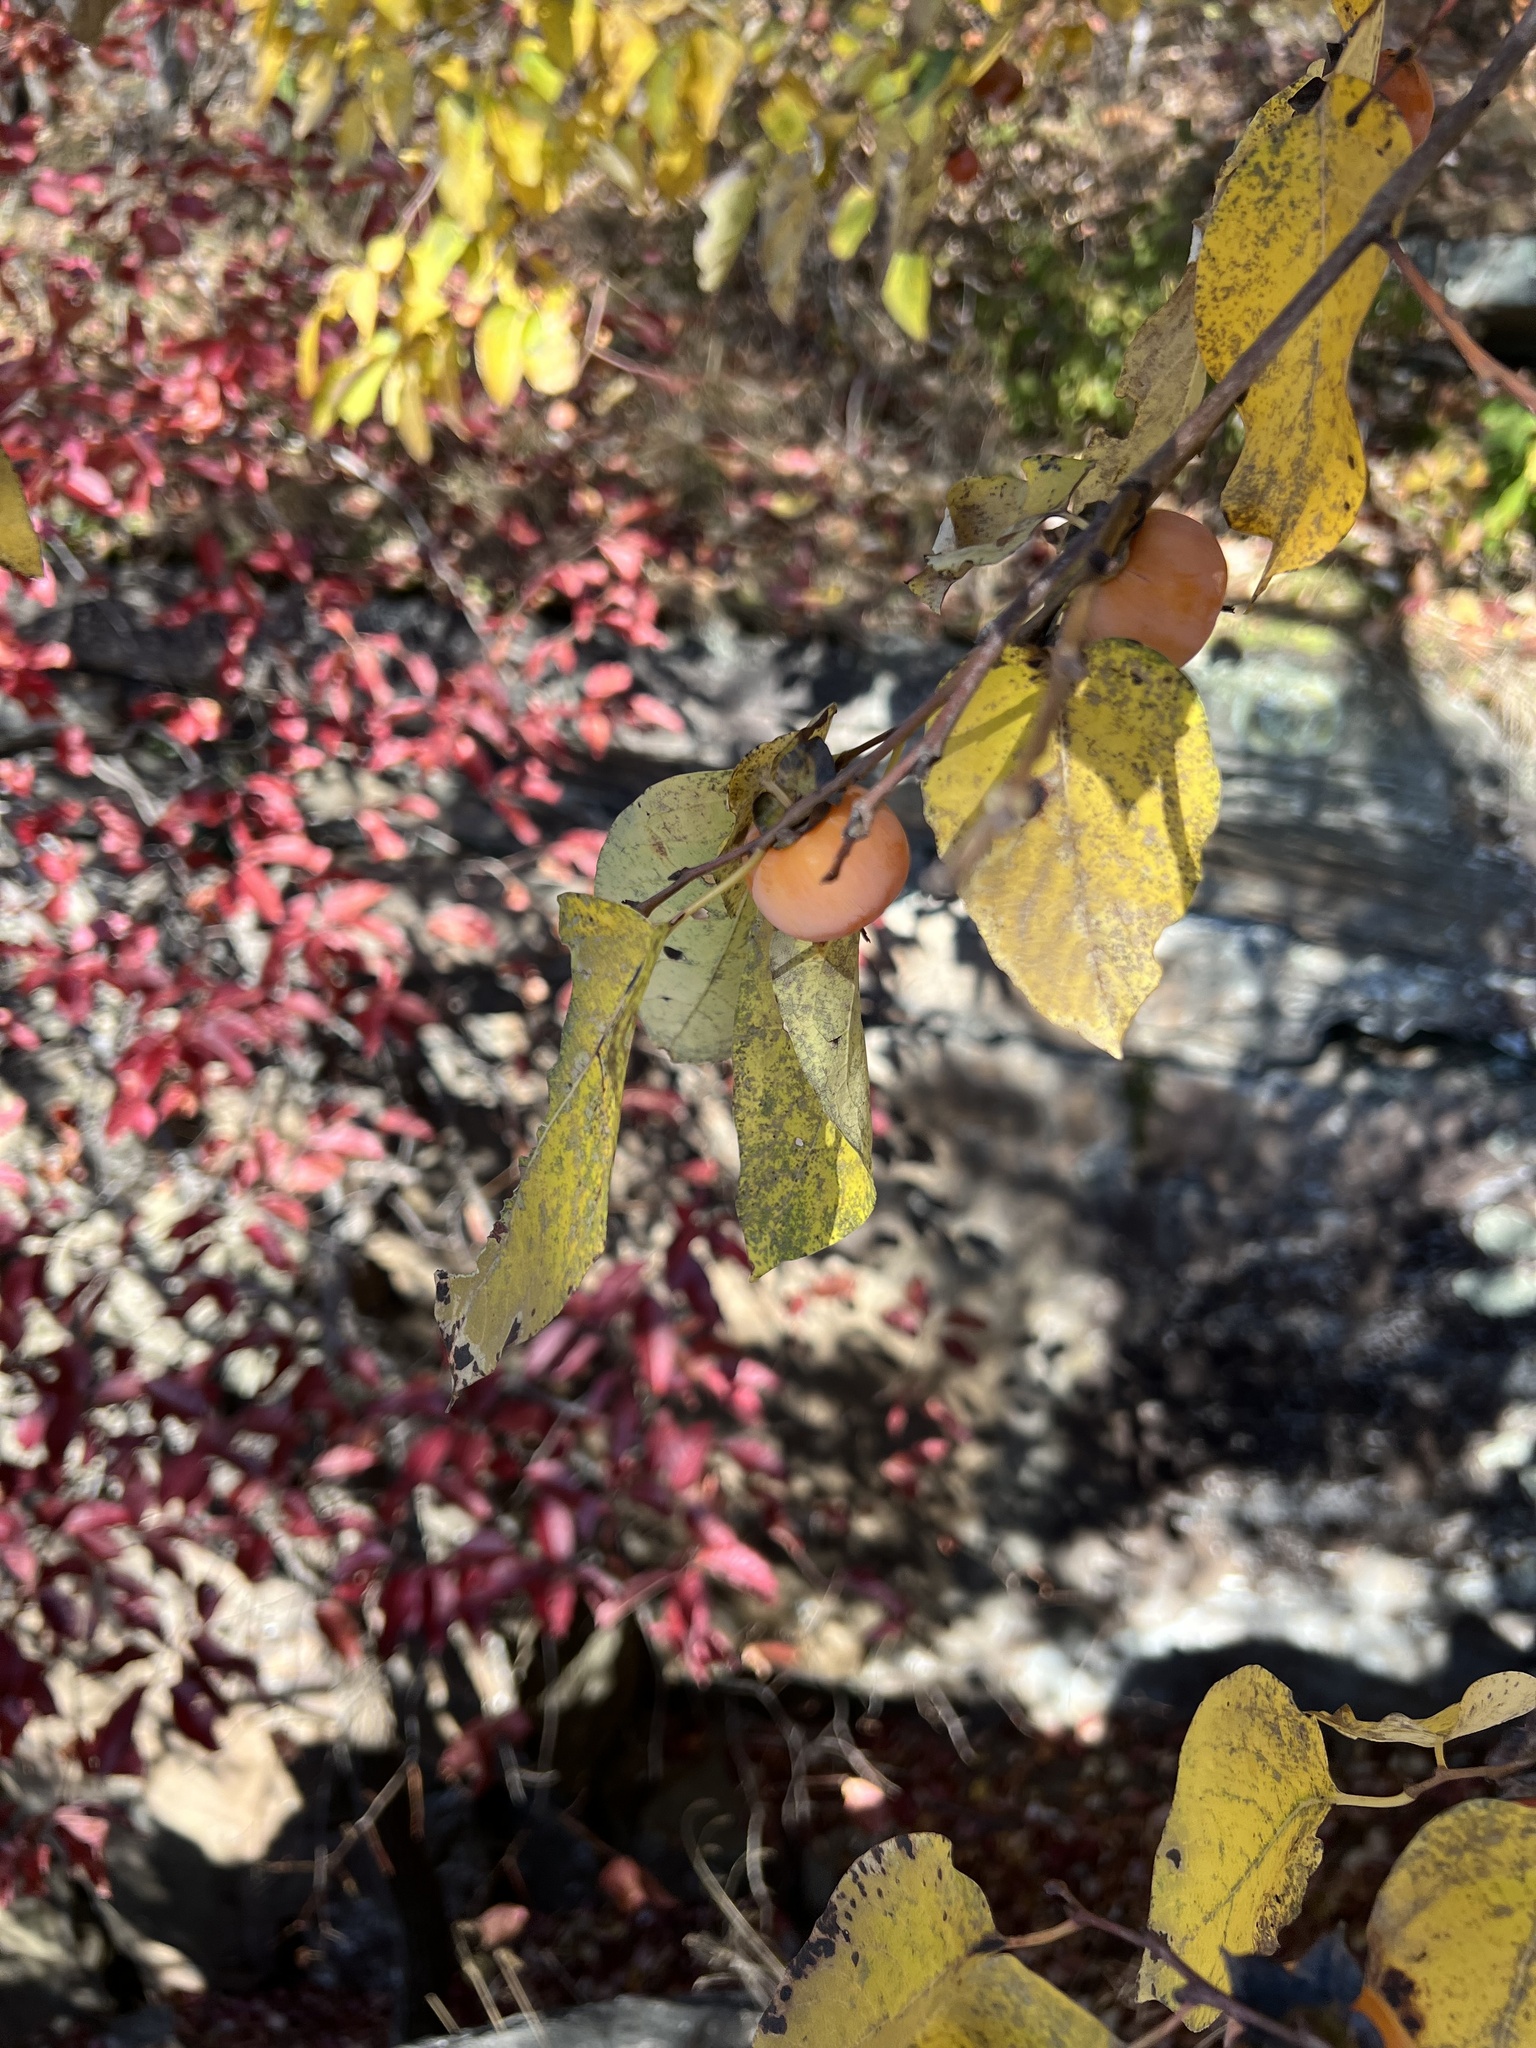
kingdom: Plantae
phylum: Tracheophyta
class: Magnoliopsida
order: Ericales
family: Ebenaceae
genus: Diospyros
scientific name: Diospyros virginiana
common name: Persimmon
